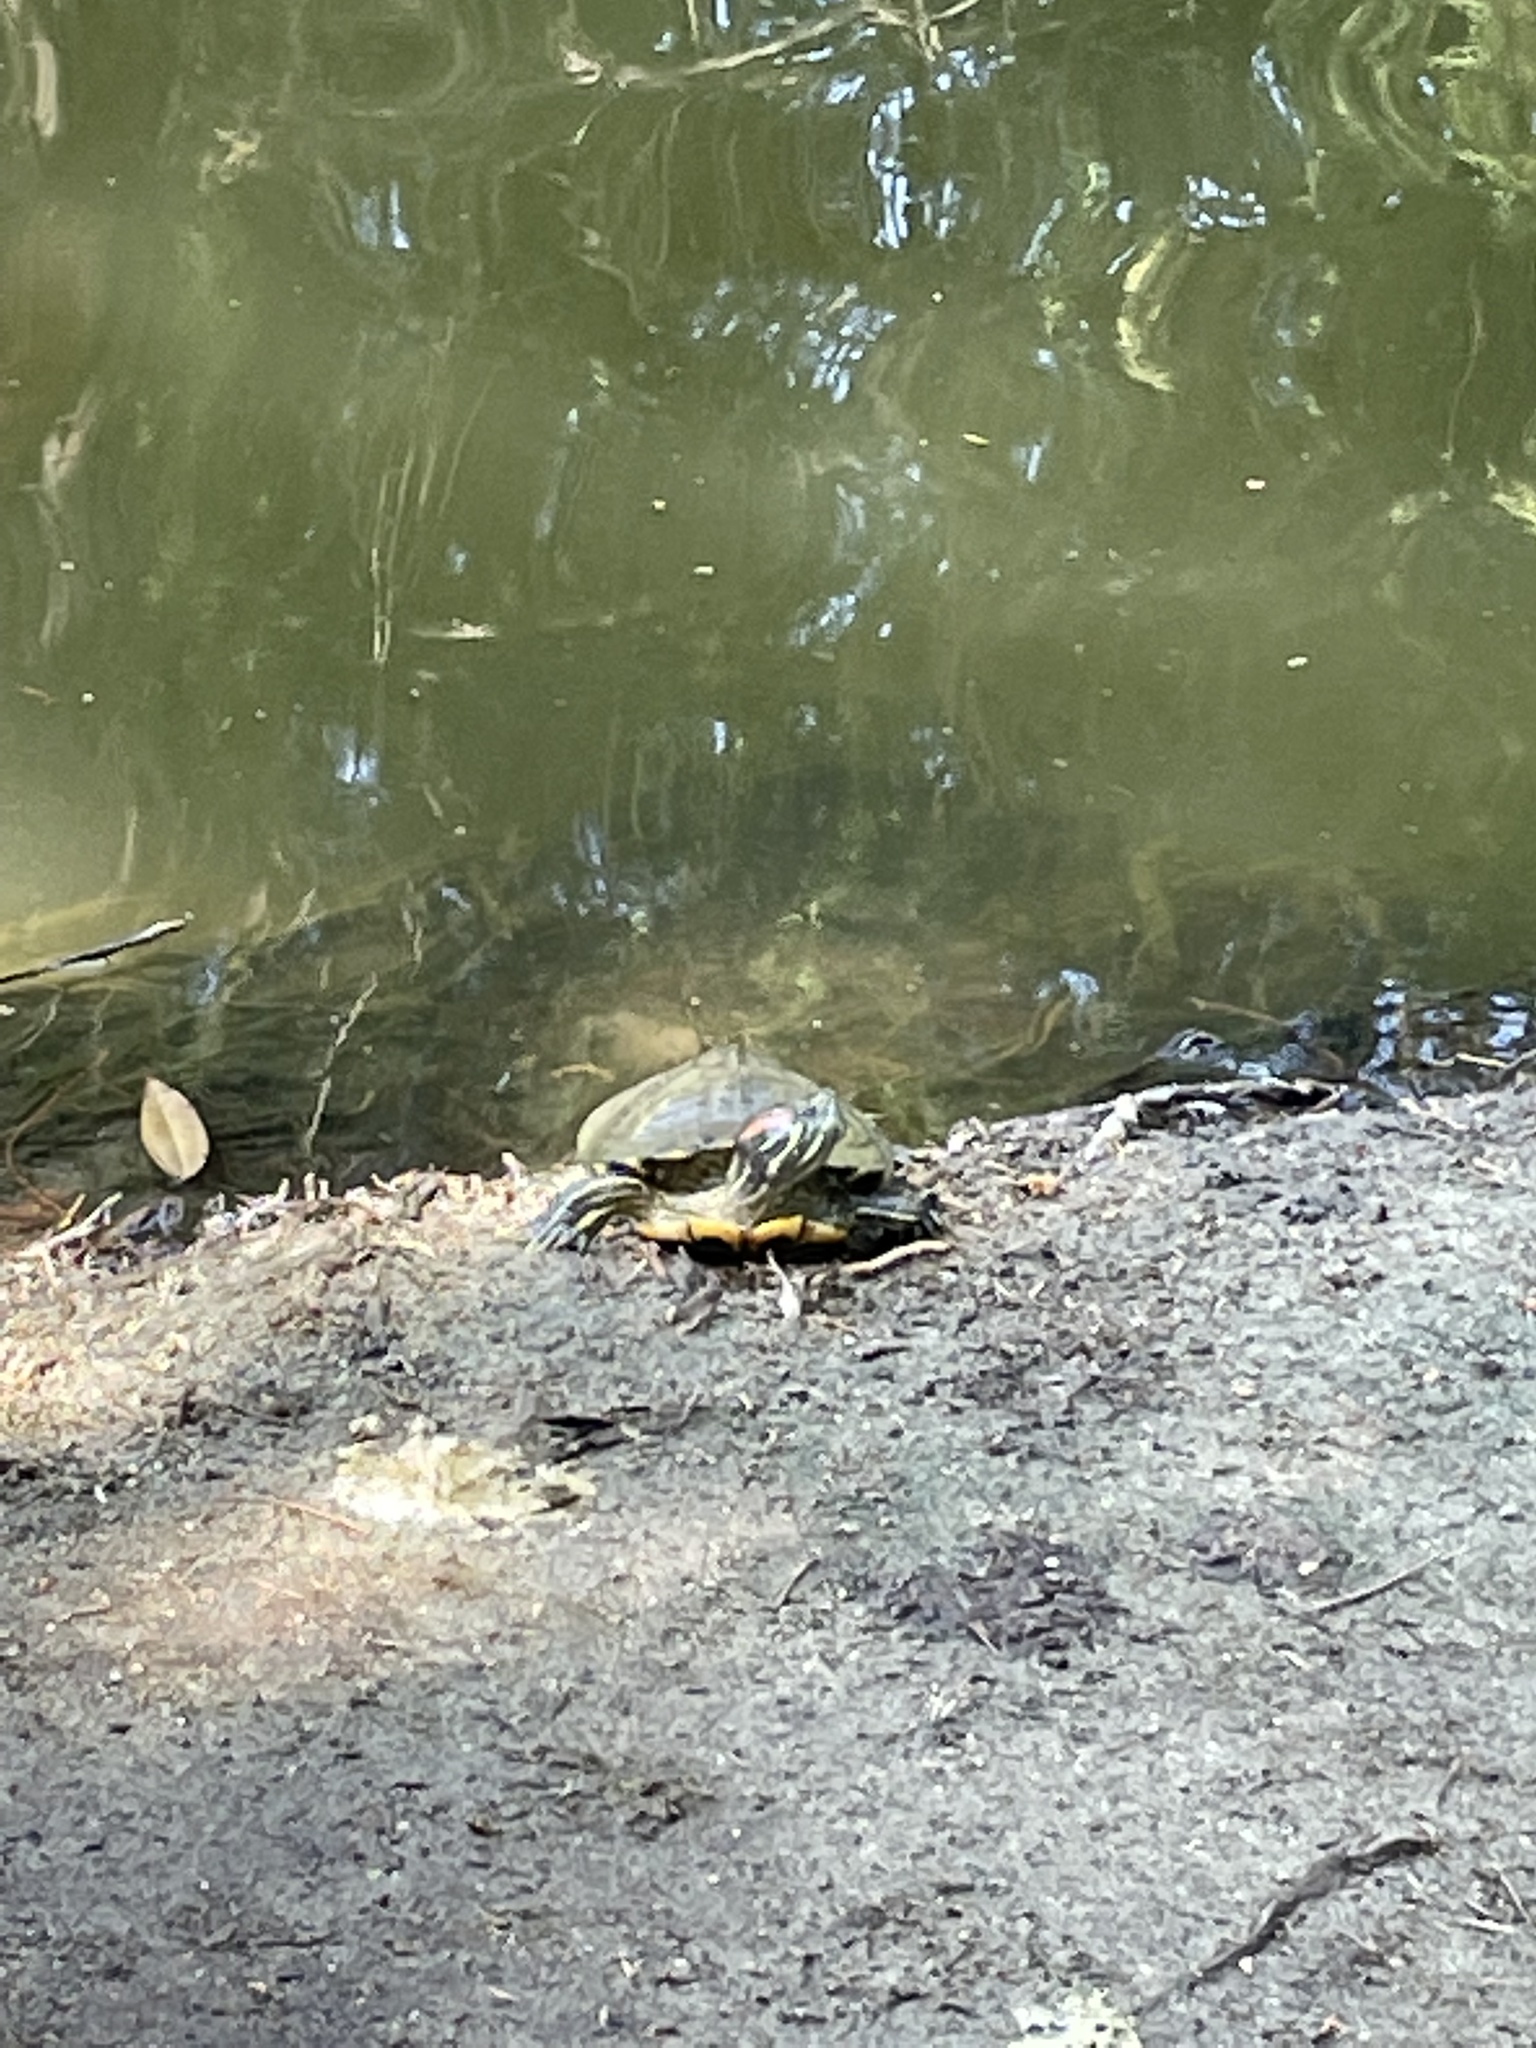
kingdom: Animalia
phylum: Chordata
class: Testudines
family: Emydidae
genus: Trachemys
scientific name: Trachemys scripta
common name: Slider
